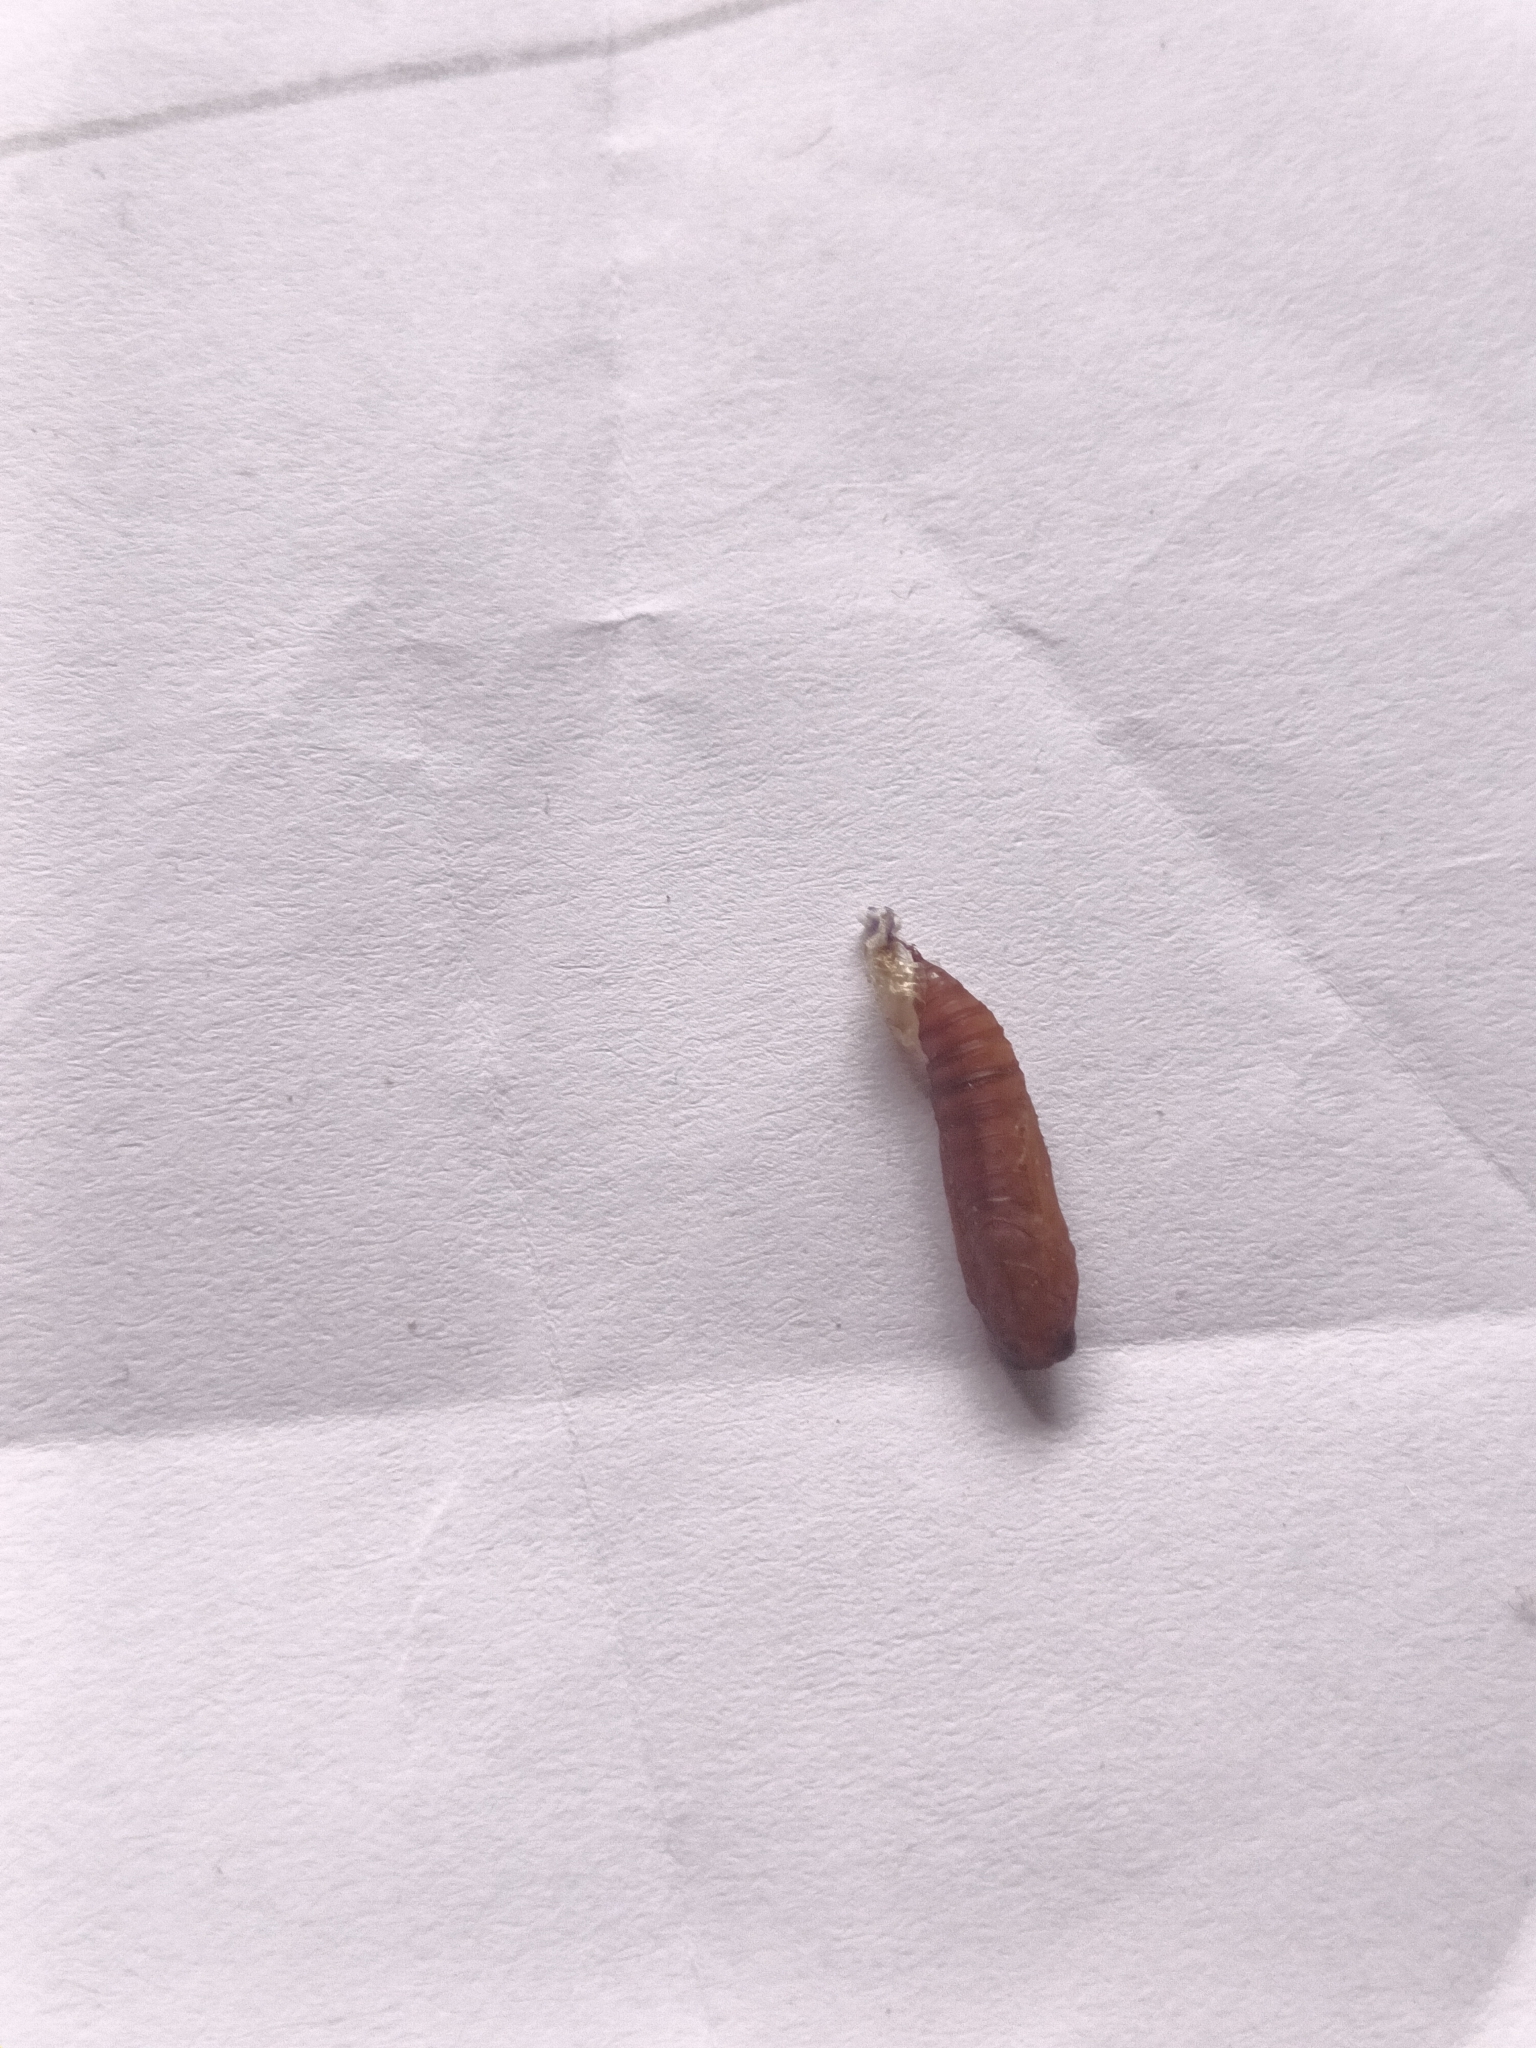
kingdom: Animalia
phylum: Arthropoda
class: Insecta
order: Lepidoptera
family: Crambidae
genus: Omiodes
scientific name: Omiodes
